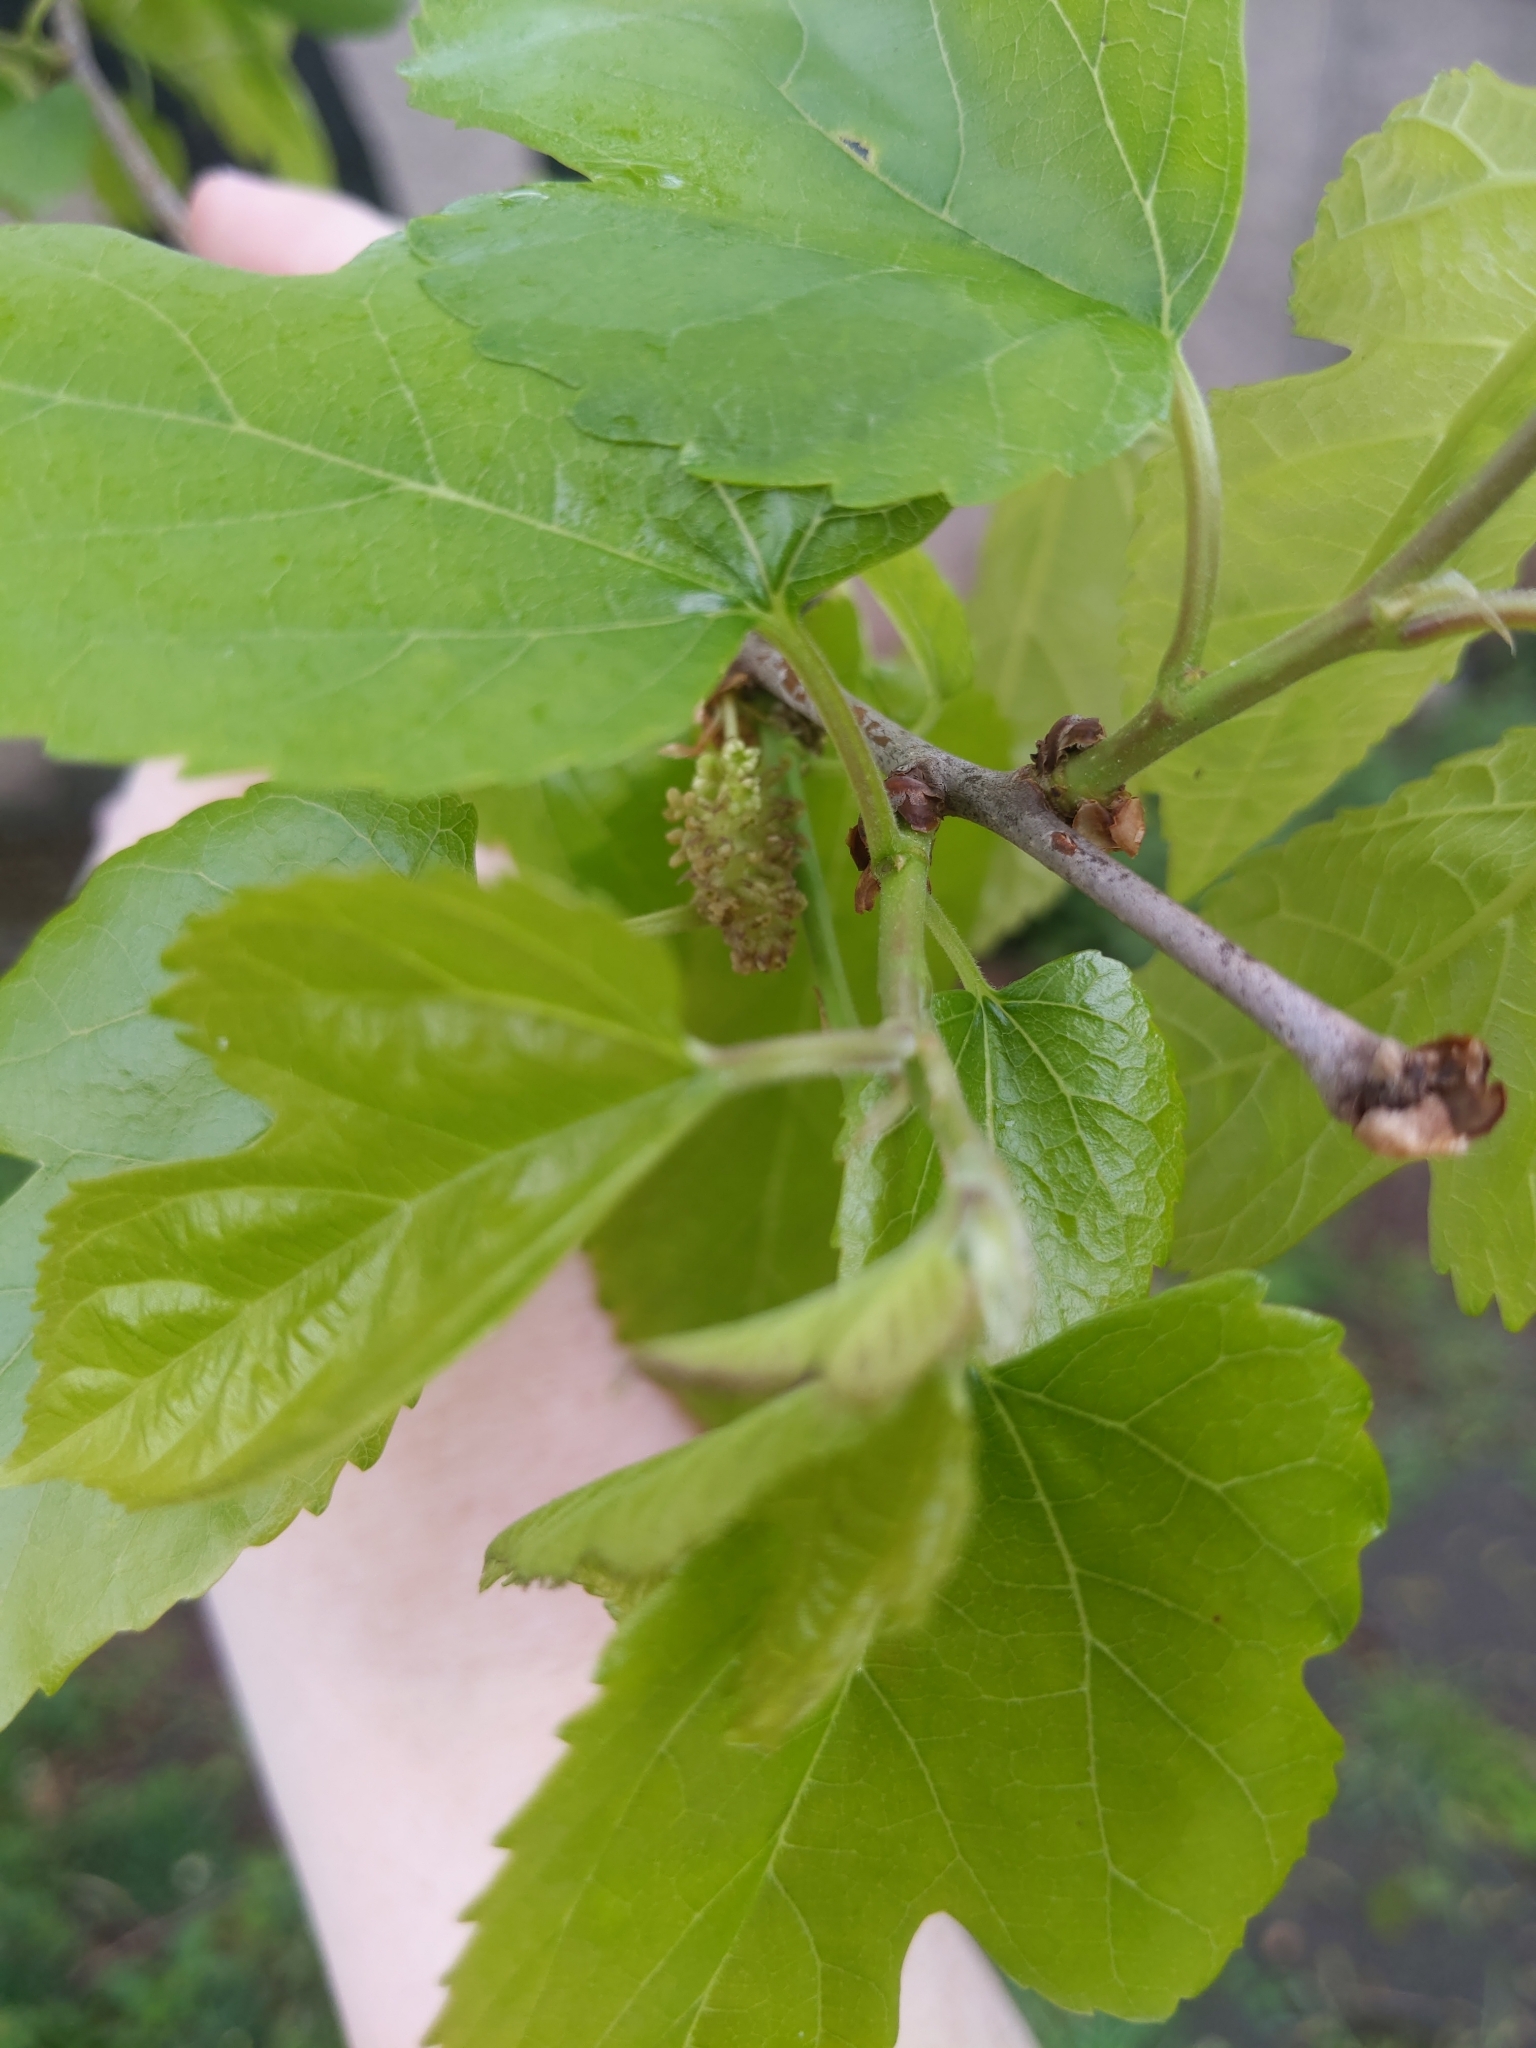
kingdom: Plantae
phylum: Tracheophyta
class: Magnoliopsida
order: Rosales
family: Moraceae
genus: Morus
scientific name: Morus alba
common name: White mulberry
